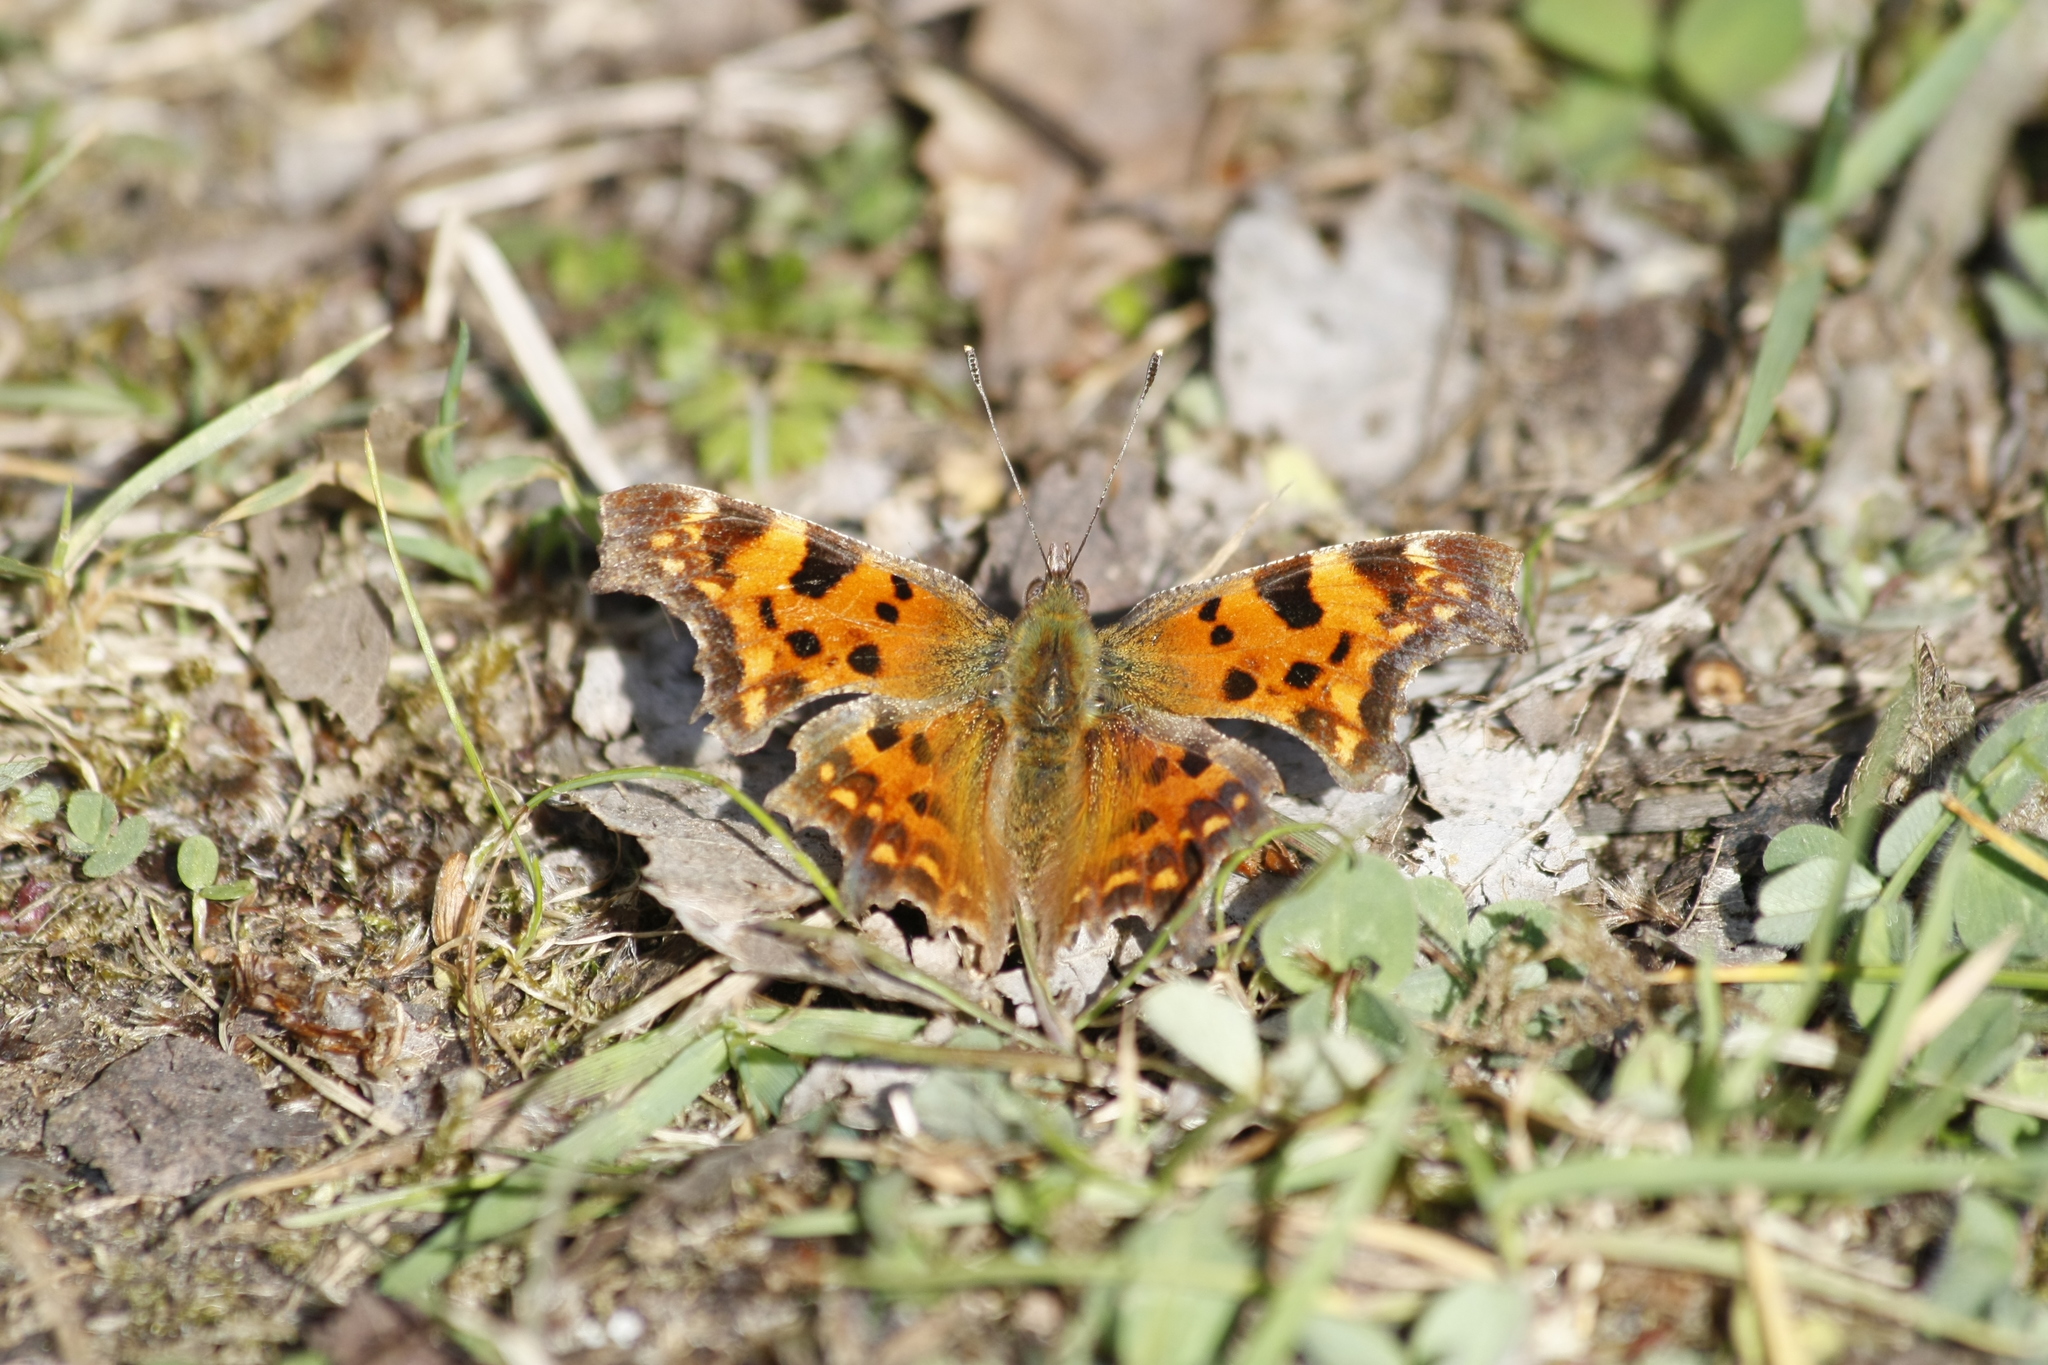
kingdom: Animalia
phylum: Arthropoda
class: Insecta
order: Lepidoptera
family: Nymphalidae
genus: Polygonia
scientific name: Polygonia c-album
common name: Comma
